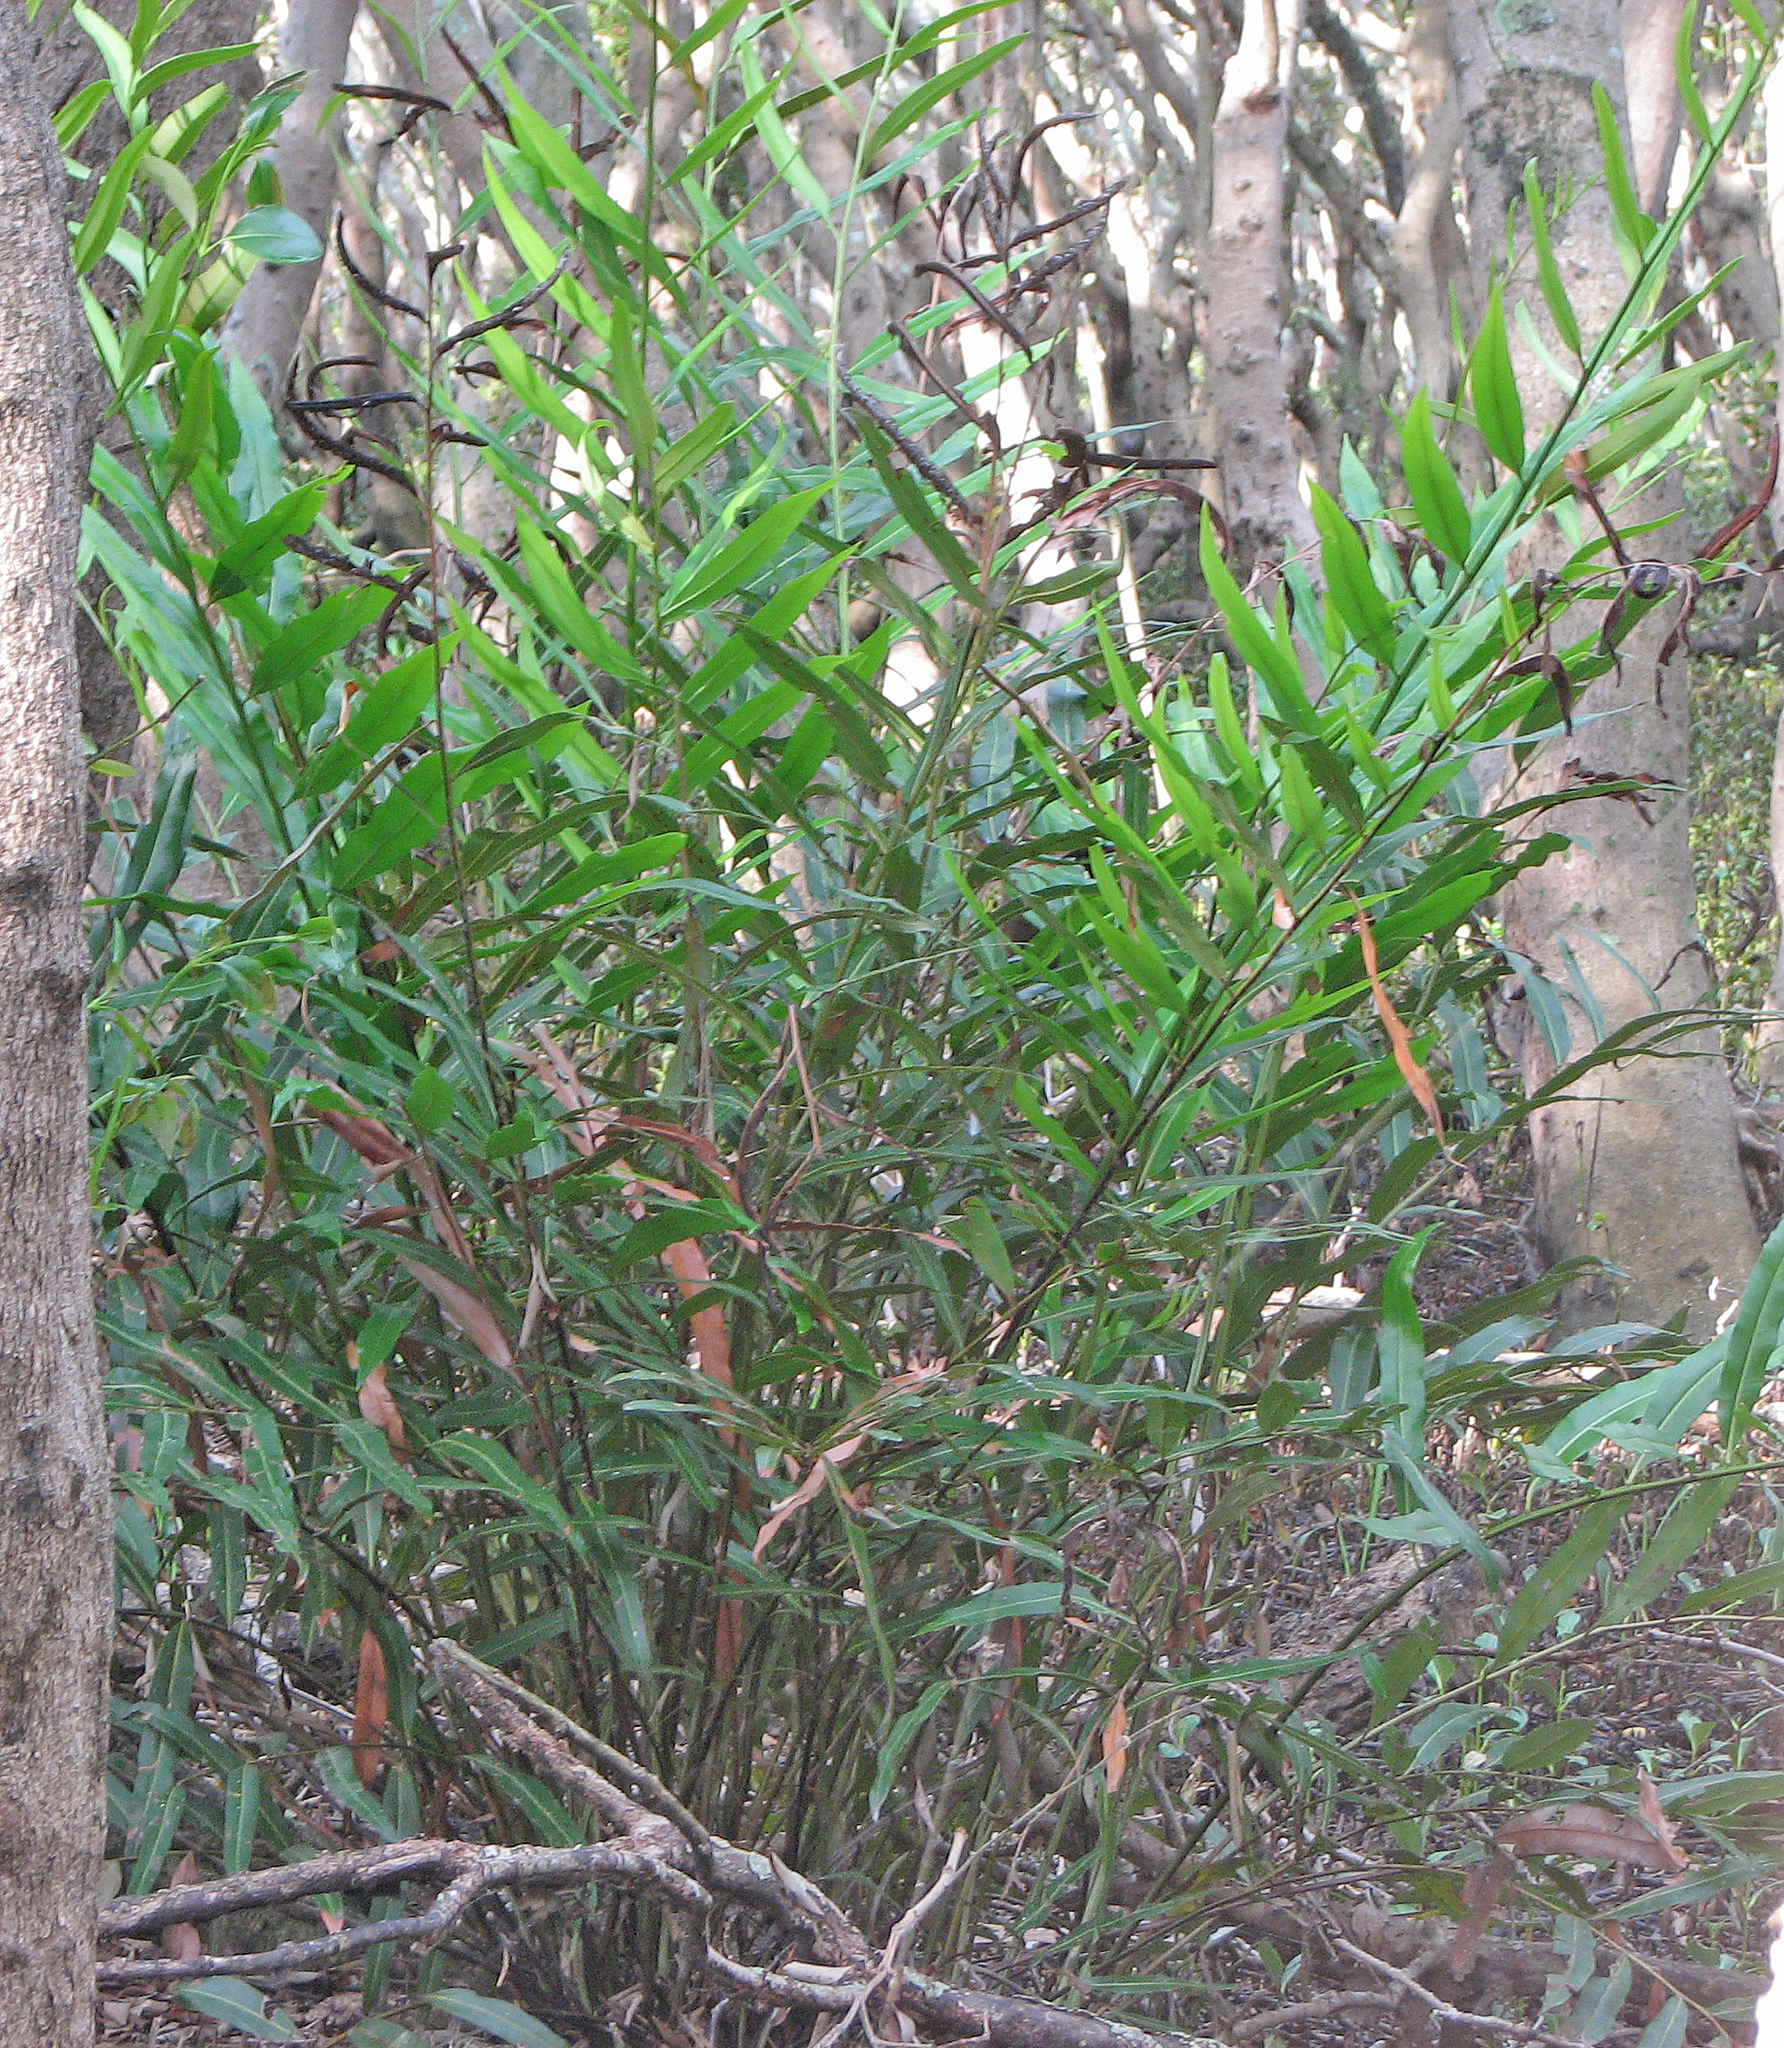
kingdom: Plantae
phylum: Tracheophyta
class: Polypodiopsida
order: Polypodiales
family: Pteridaceae
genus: Acrostichum
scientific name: Acrostichum speciosum
